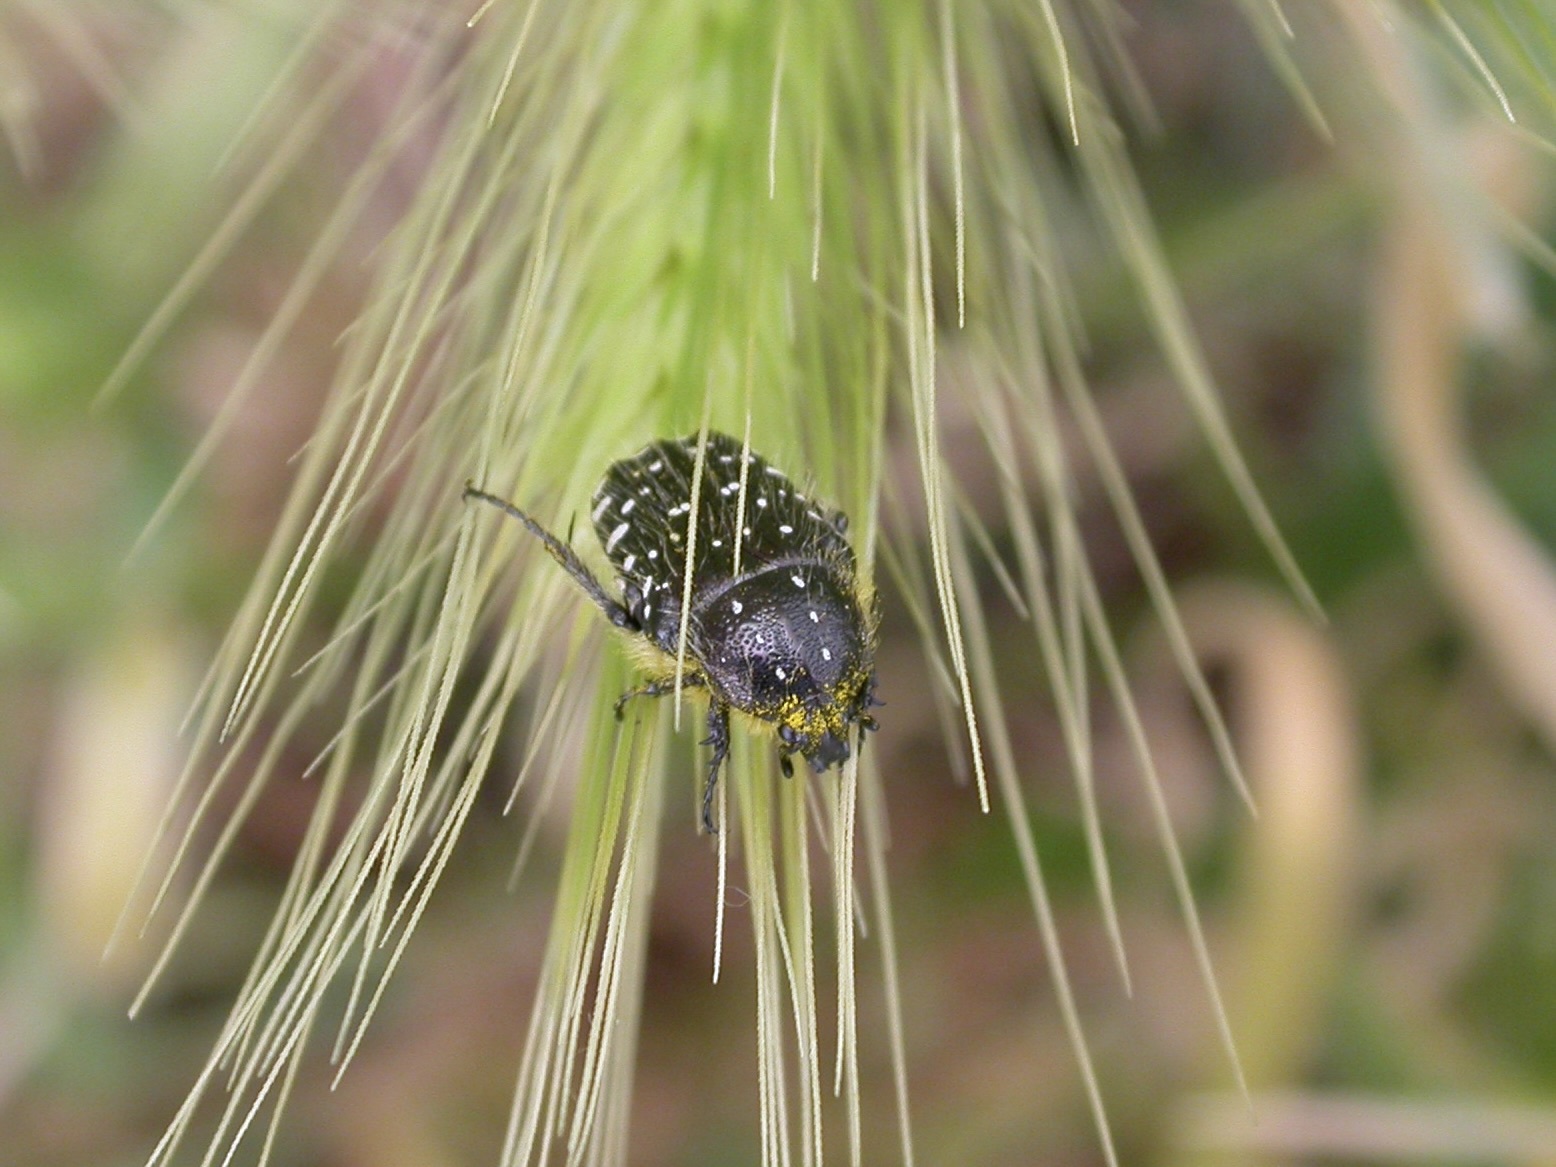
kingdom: Animalia
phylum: Arthropoda
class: Insecta
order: Coleoptera
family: Scarabaeidae
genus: Oxythyrea
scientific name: Oxythyrea funesta
